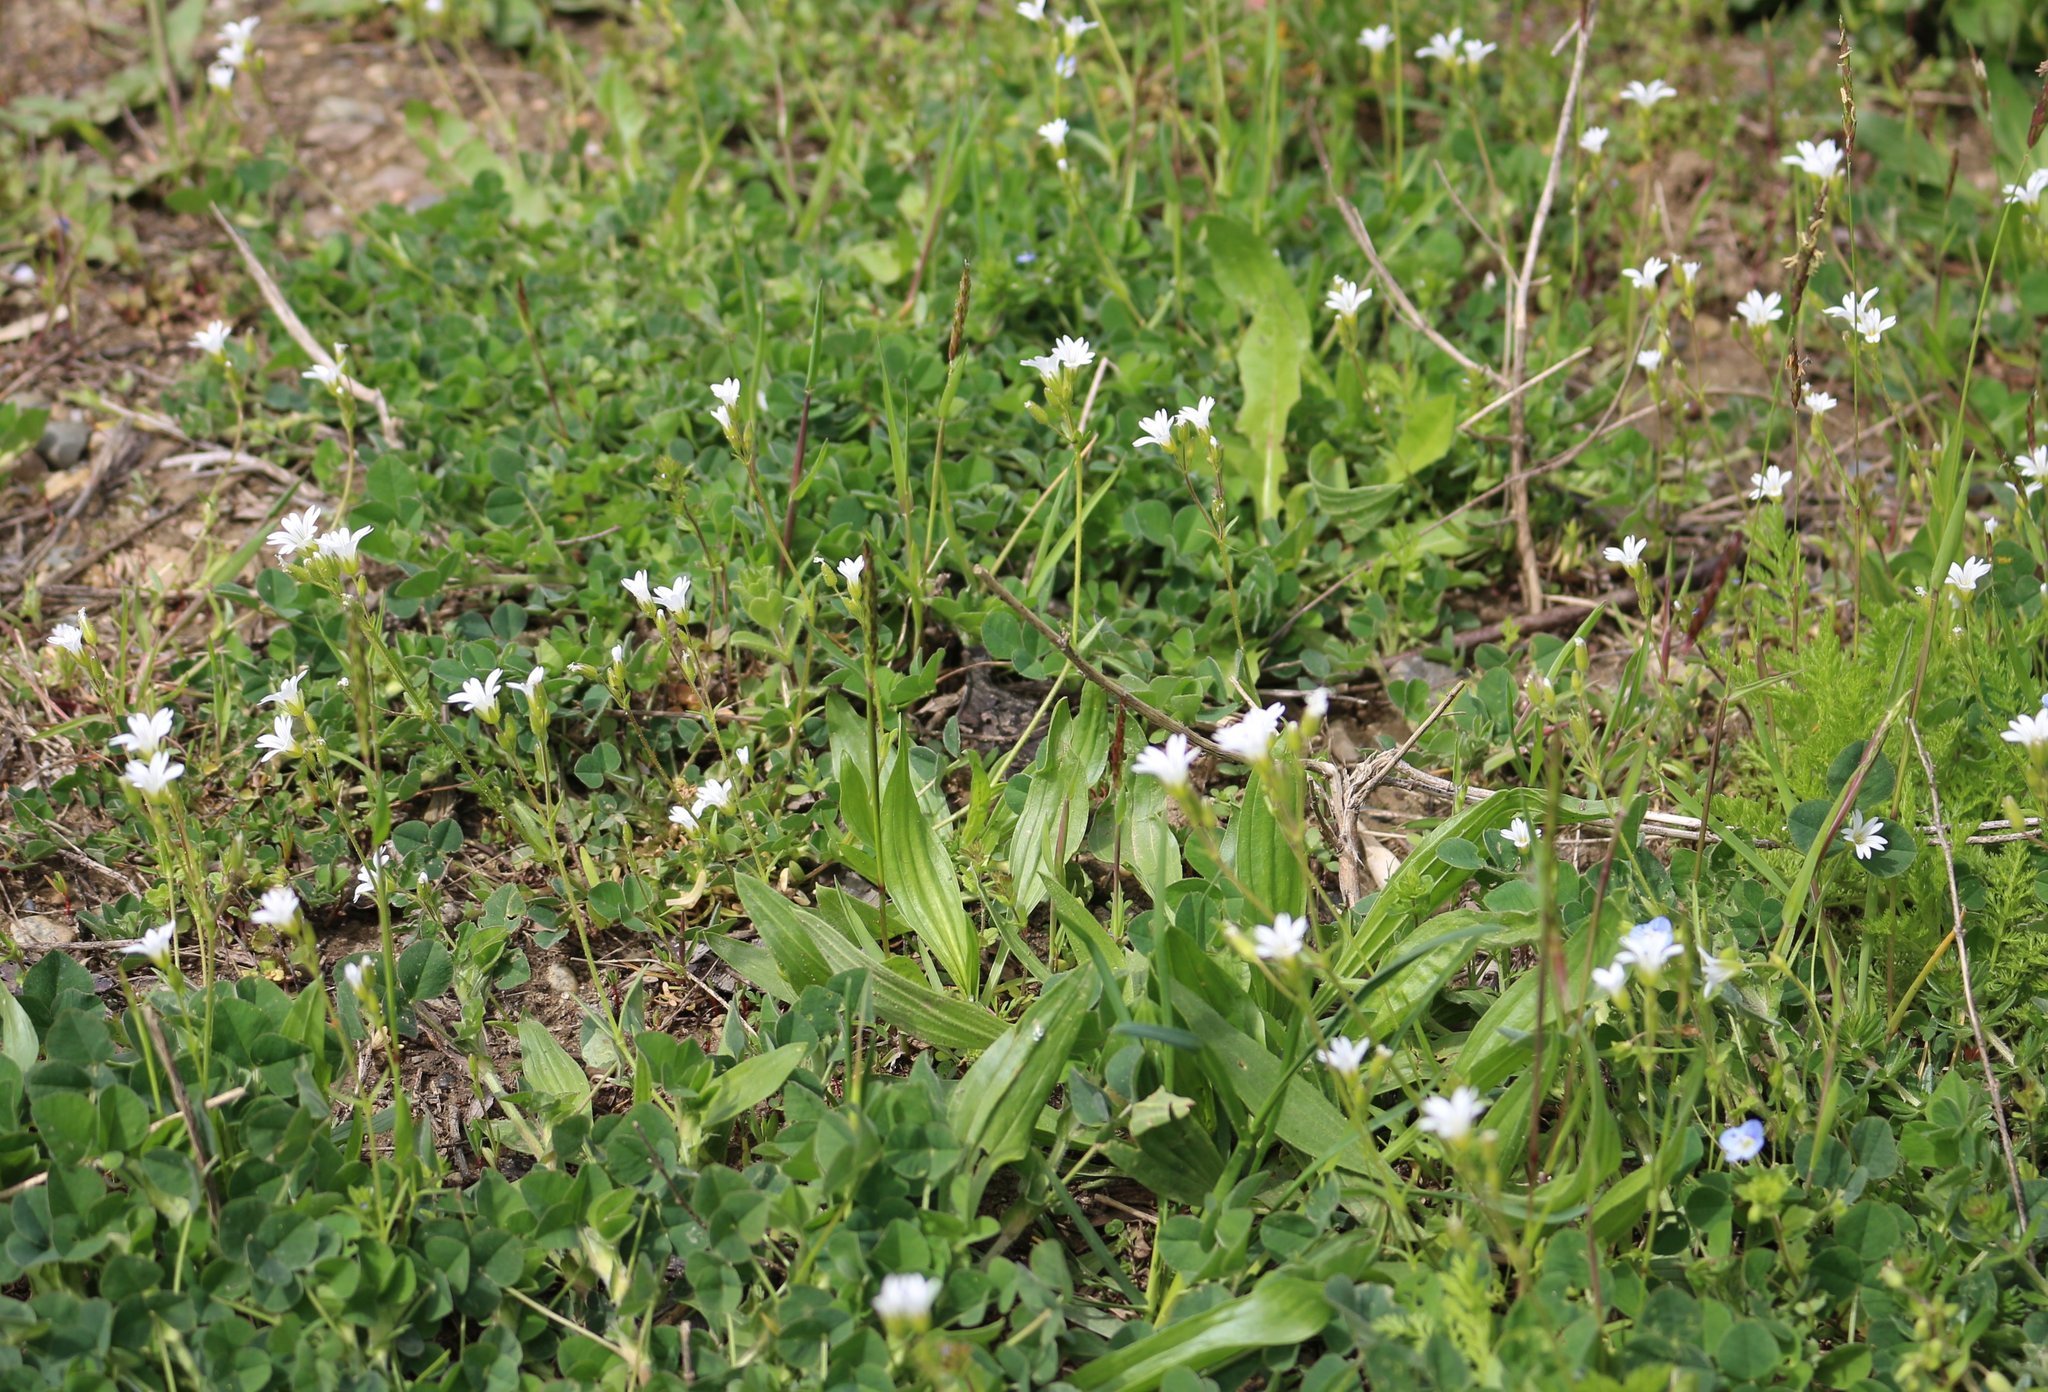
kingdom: Plantae
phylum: Tracheophyta
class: Magnoliopsida
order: Caryophyllales
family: Caryophyllaceae
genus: Dichodon
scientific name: Dichodon viscidum
